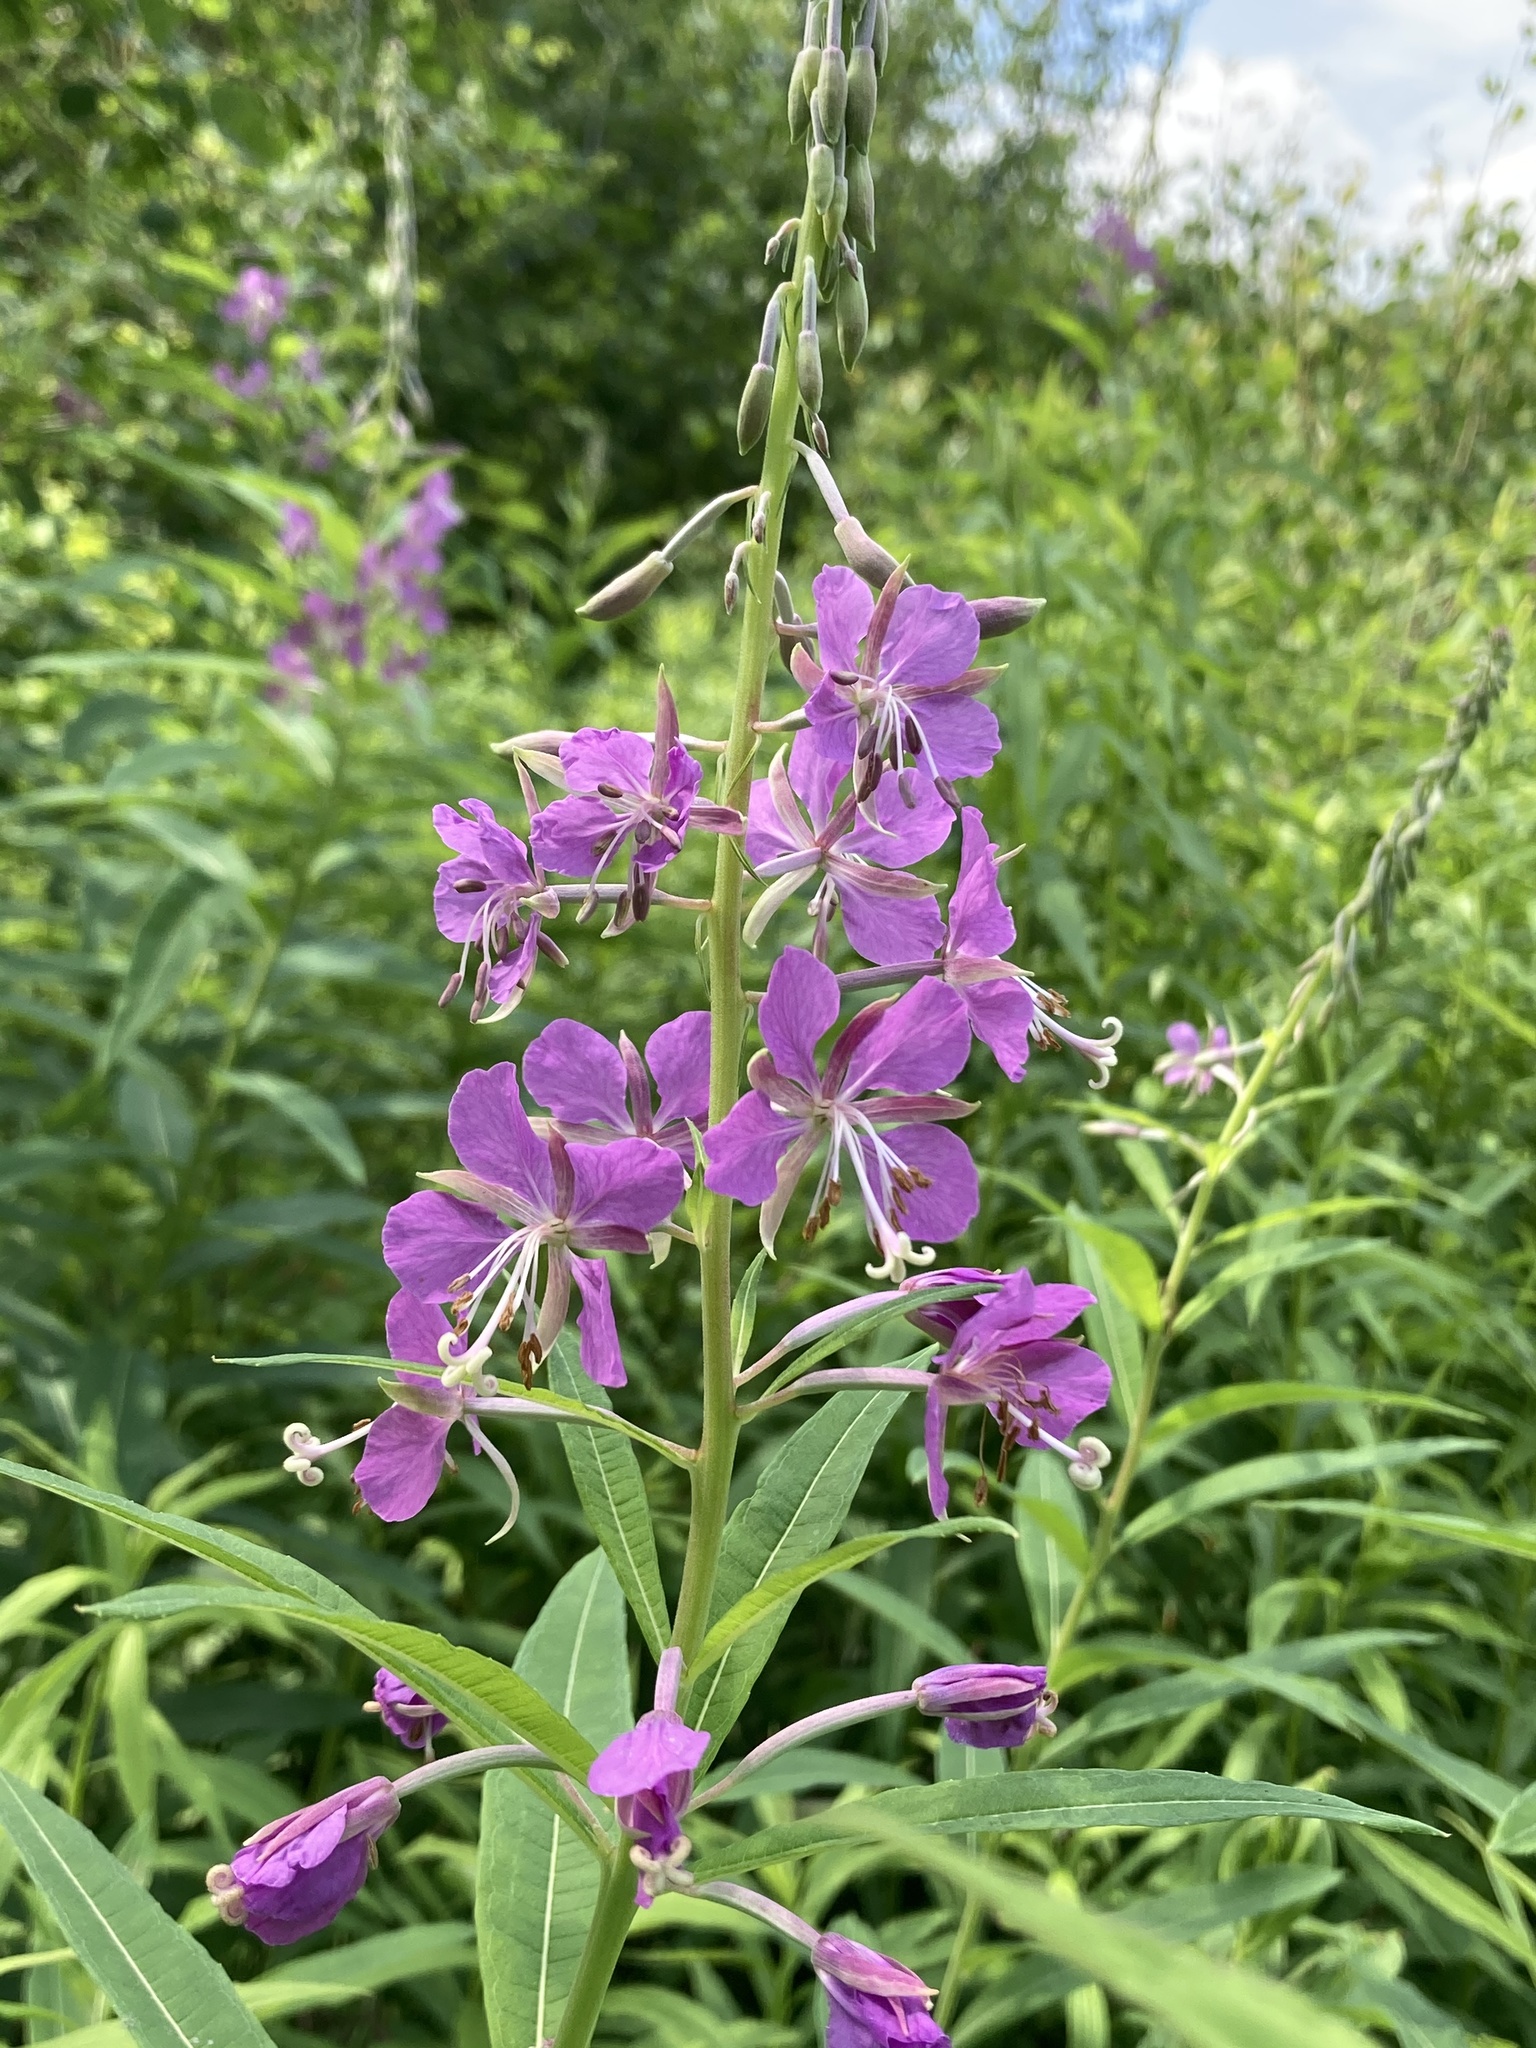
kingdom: Plantae
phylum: Tracheophyta
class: Magnoliopsida
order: Myrtales
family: Onagraceae
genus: Chamaenerion
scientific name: Chamaenerion angustifolium
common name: Fireweed
